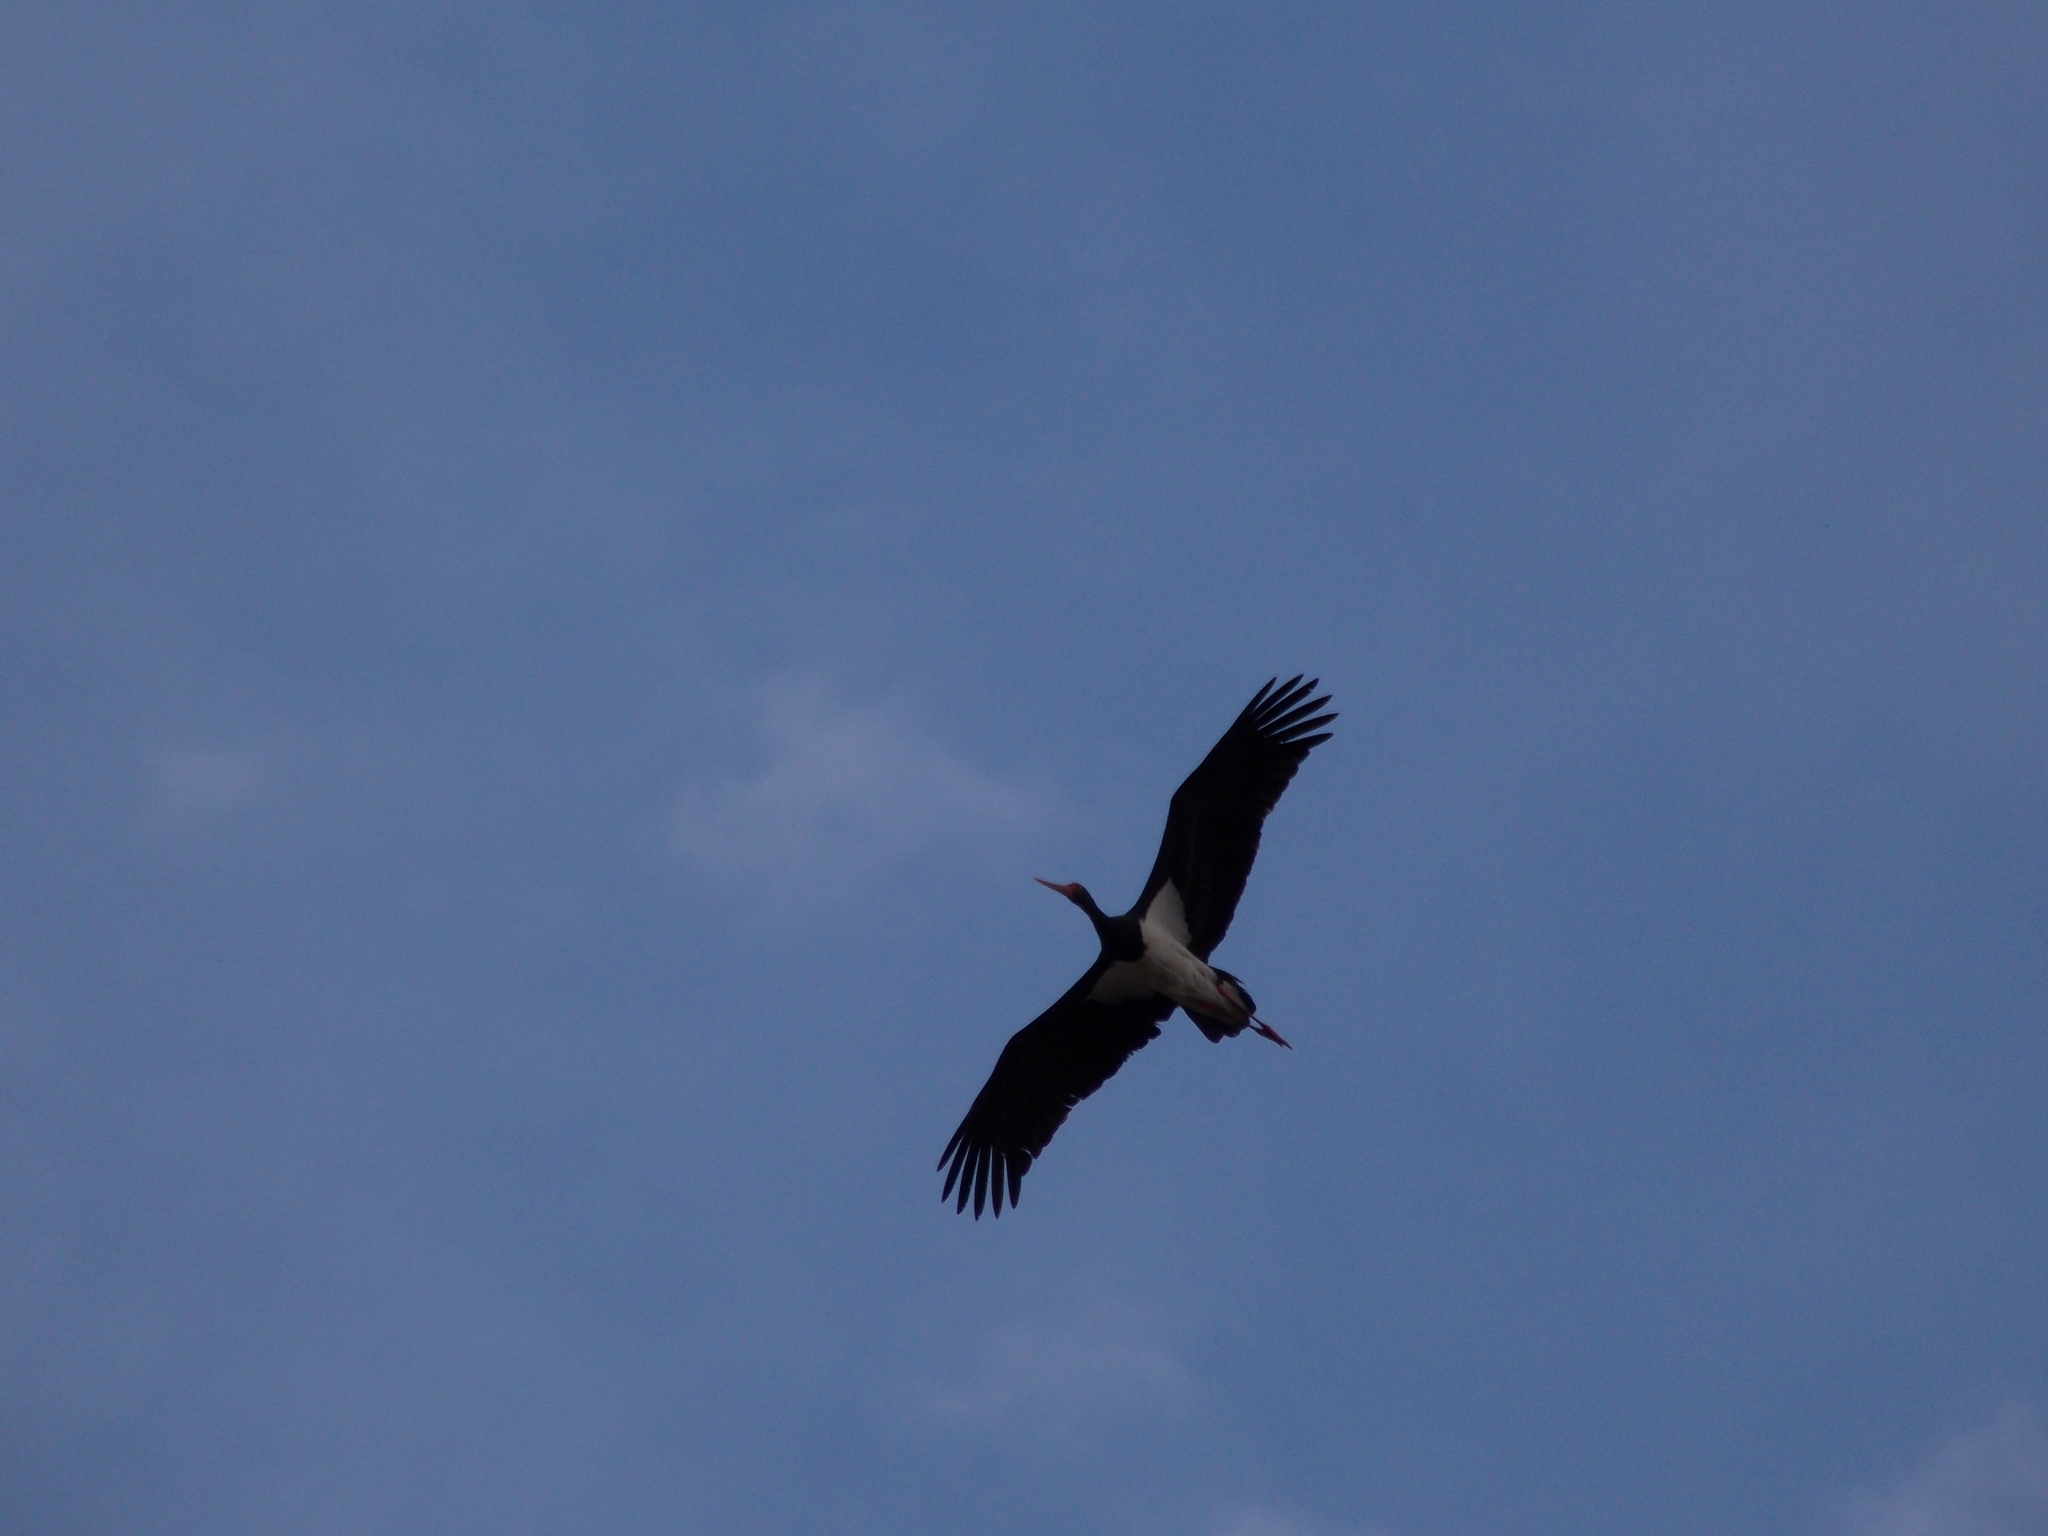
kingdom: Animalia
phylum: Chordata
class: Aves
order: Ciconiiformes
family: Ciconiidae
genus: Ciconia
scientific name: Ciconia nigra
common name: Black stork
